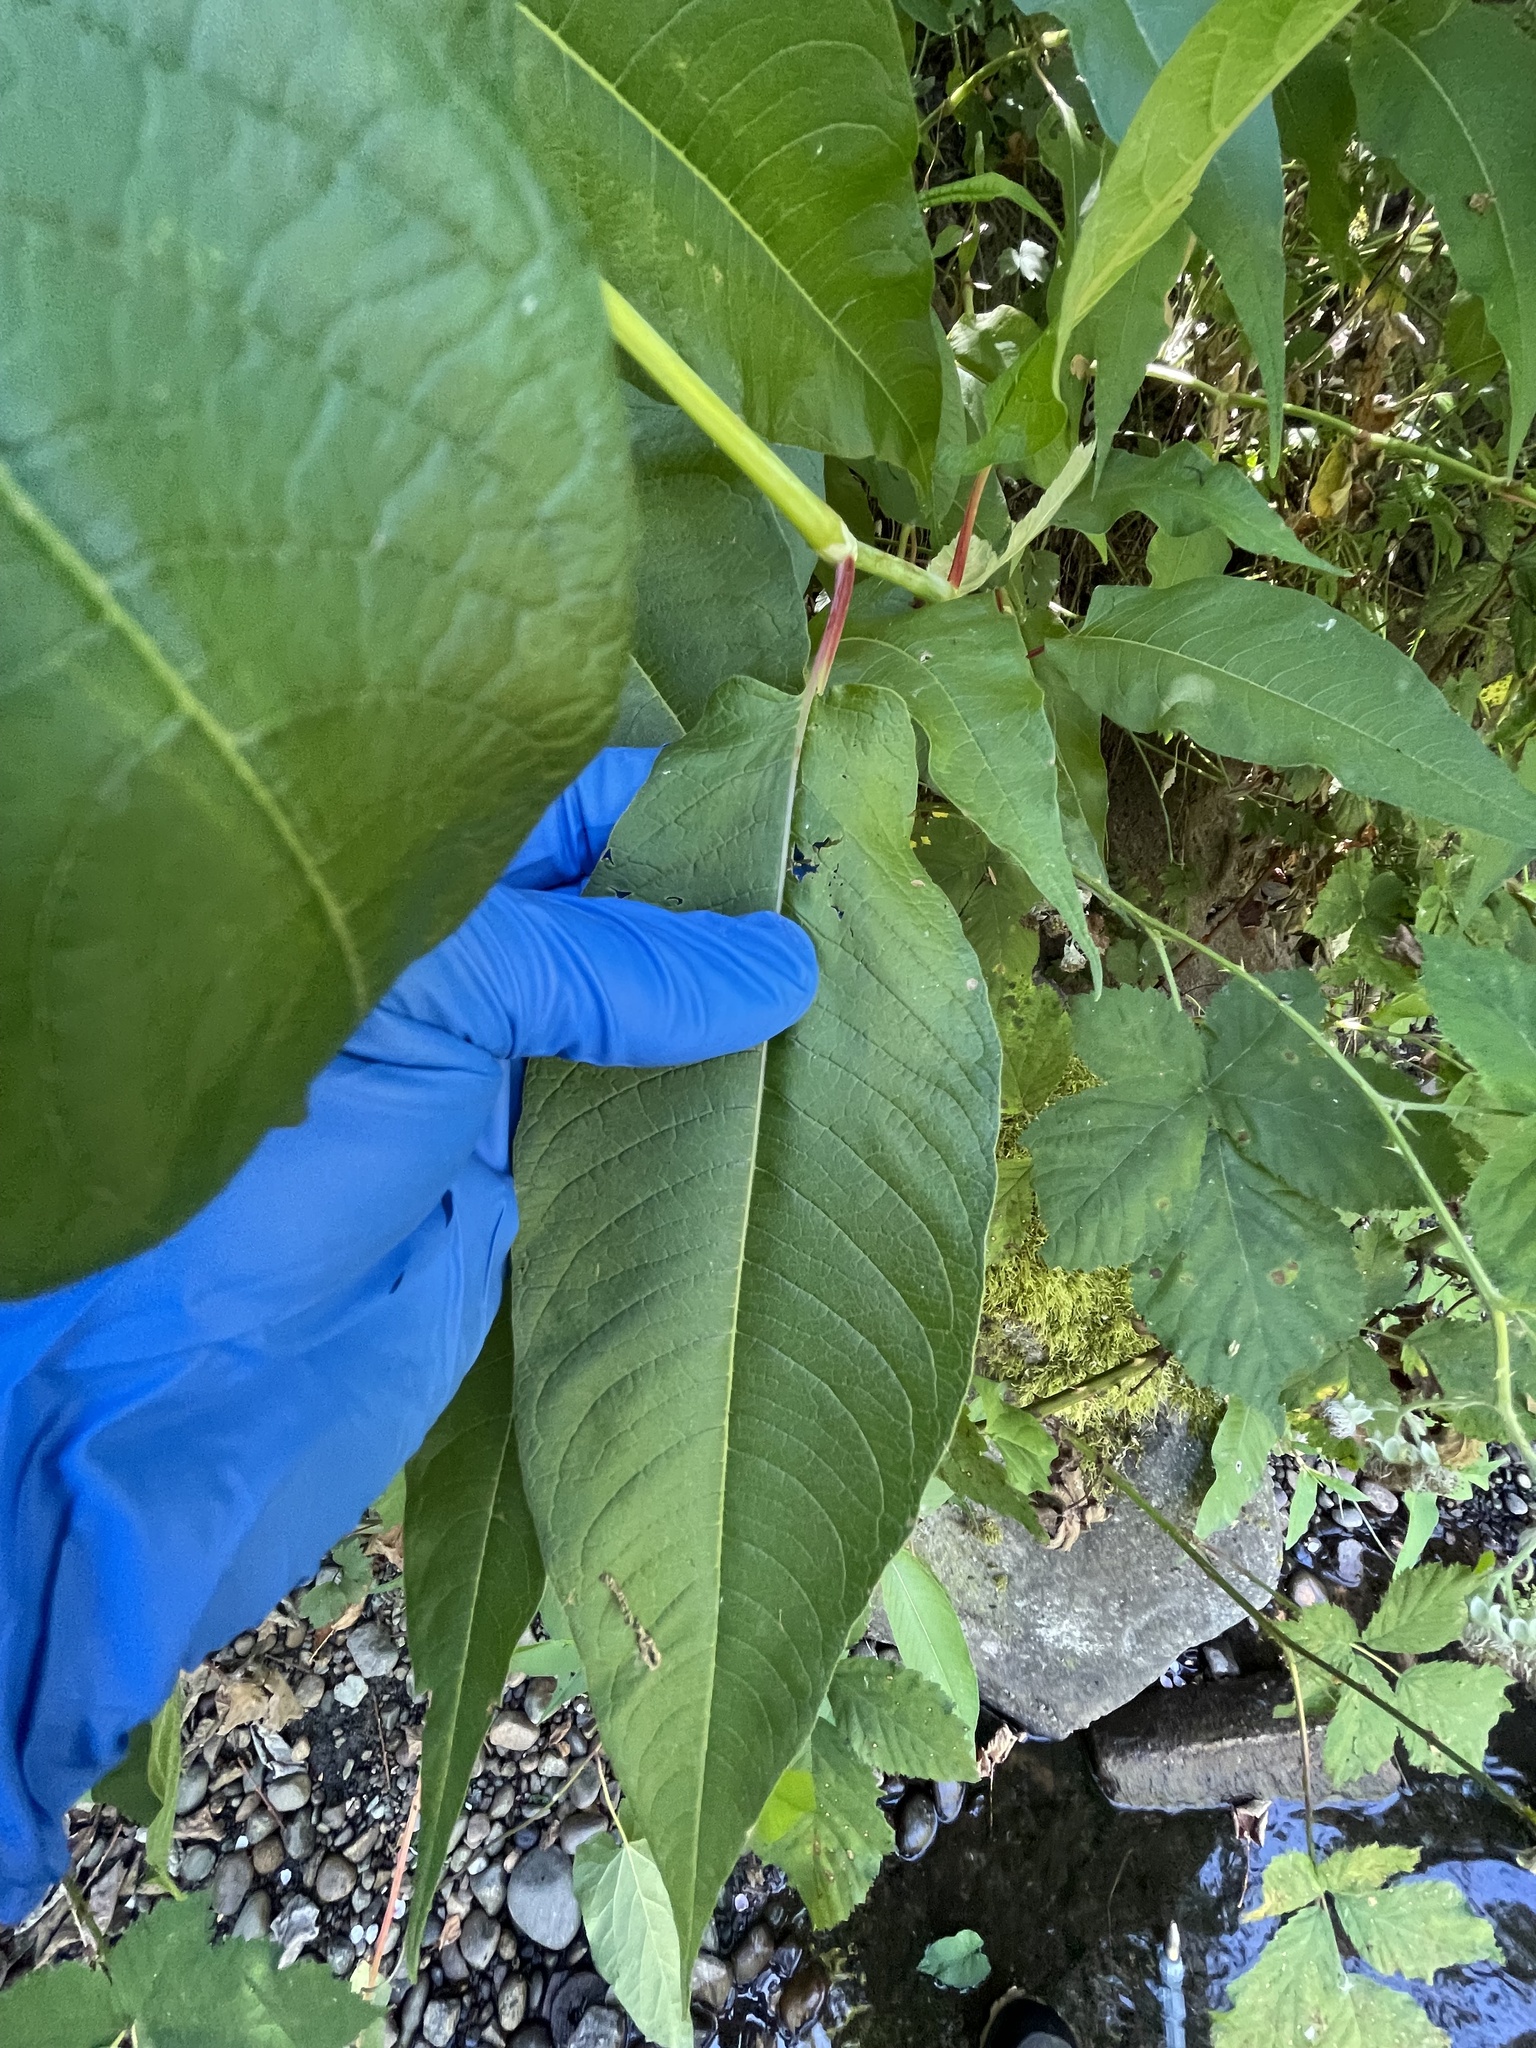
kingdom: Plantae
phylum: Tracheophyta
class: Magnoliopsida
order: Caryophyllales
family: Polygonaceae
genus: Koenigia
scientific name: Koenigia polystachya
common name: Himalayan knotweed
